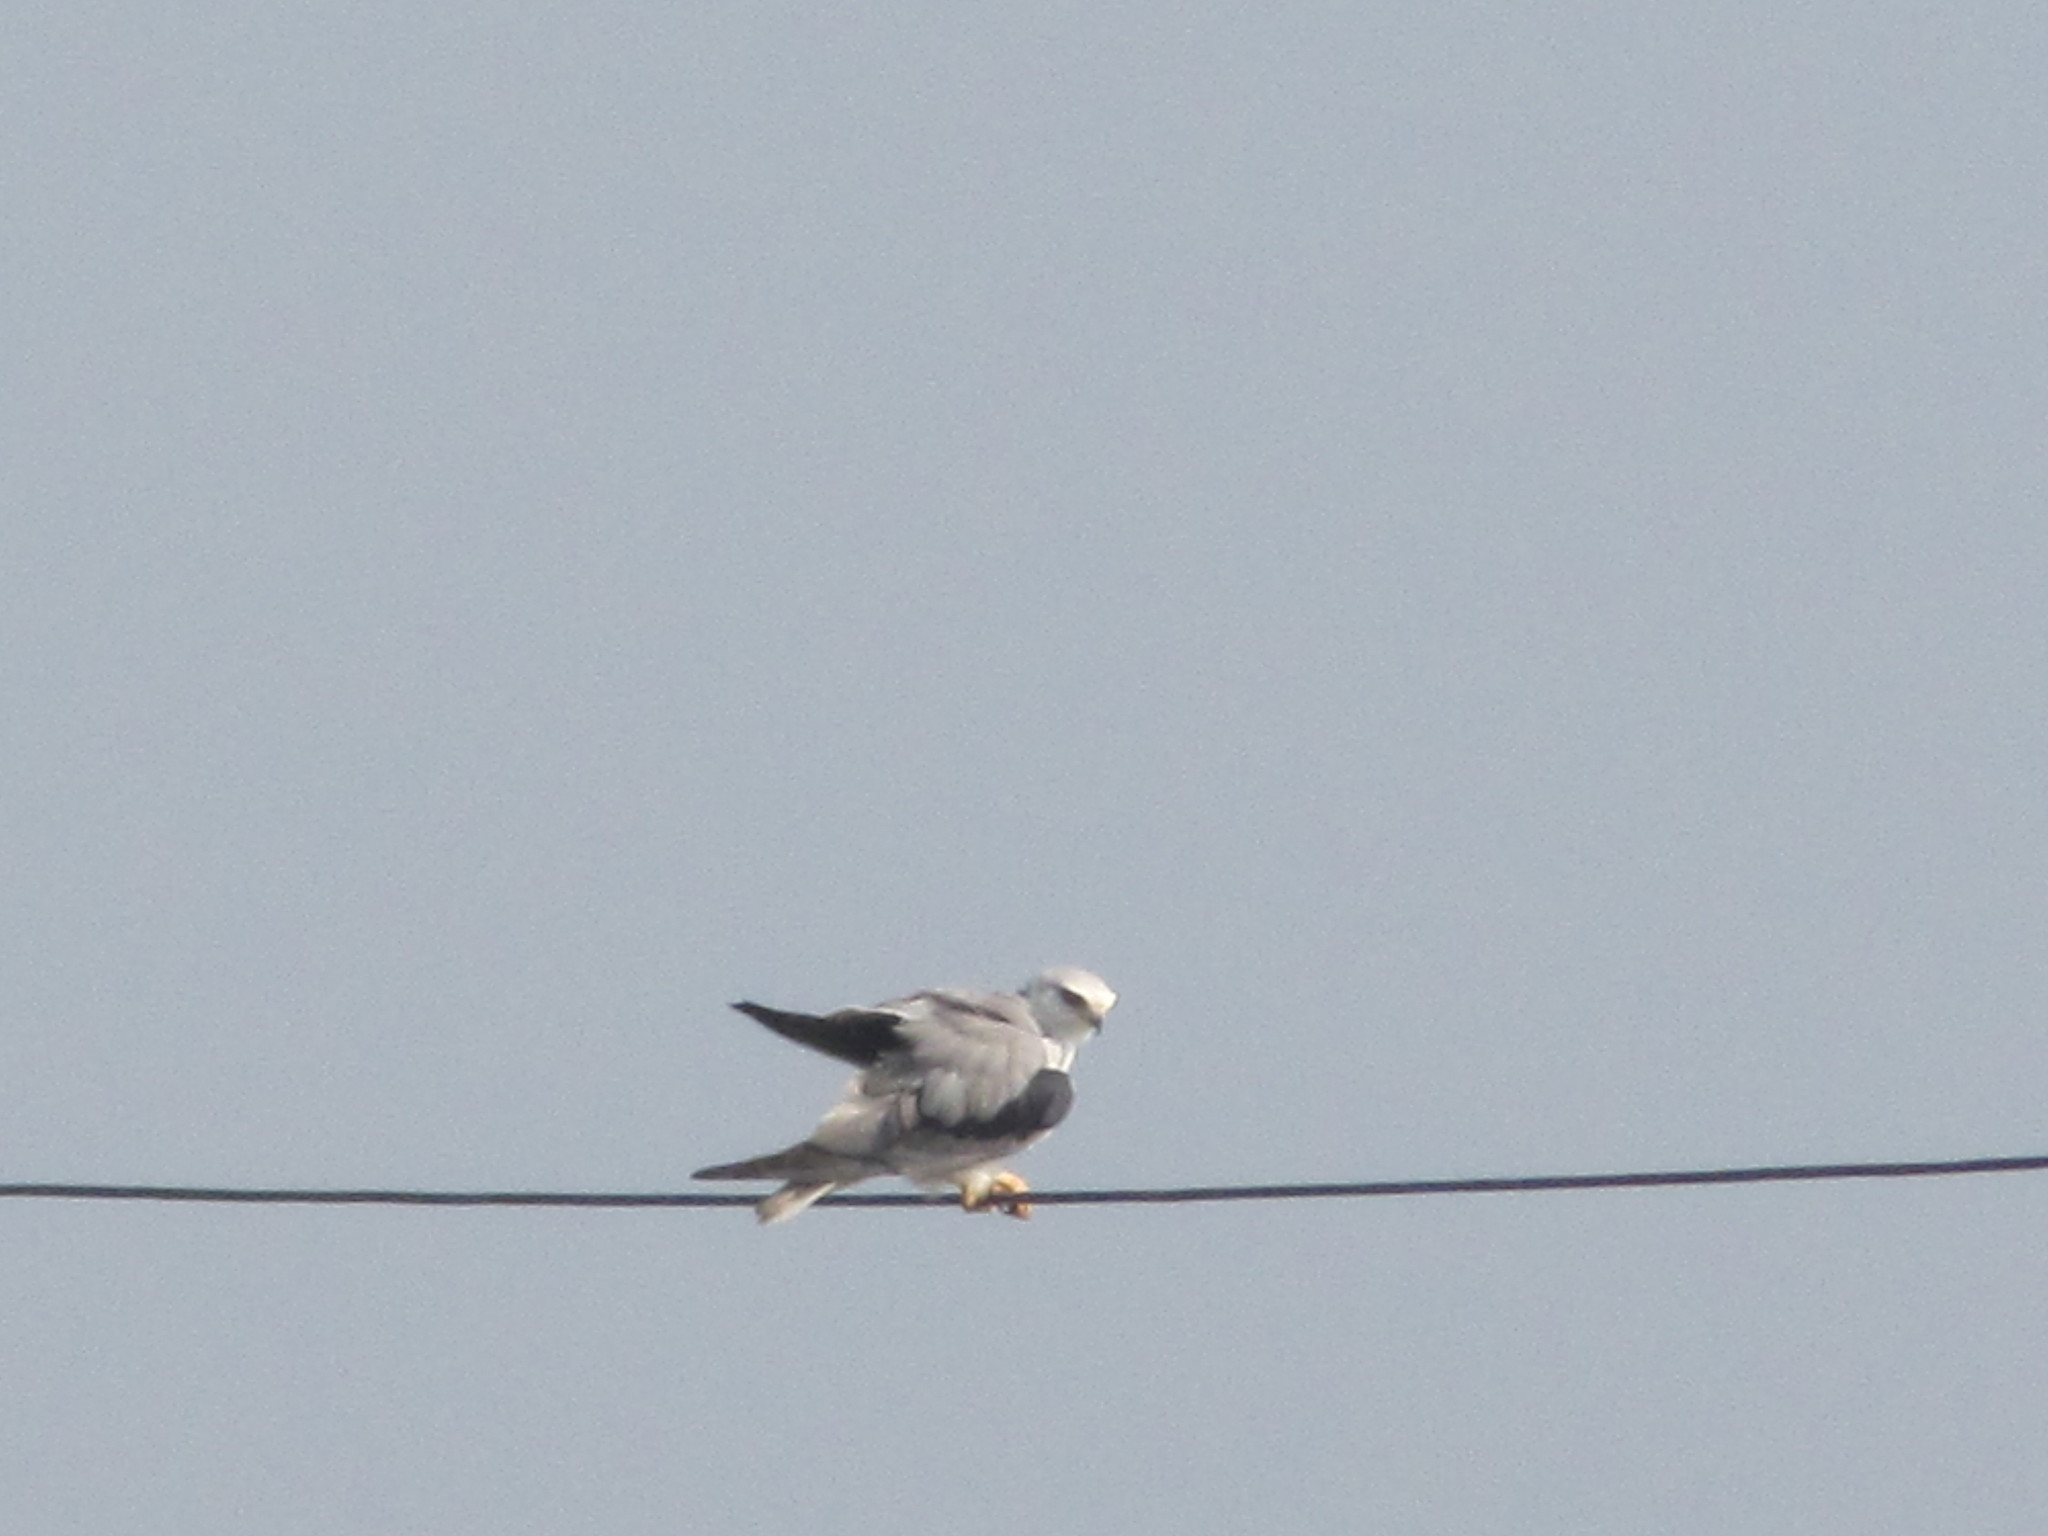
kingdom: Animalia
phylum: Chordata
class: Aves
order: Accipitriformes
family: Accipitridae
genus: Elanus
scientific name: Elanus caeruleus
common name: Black-winged kite
